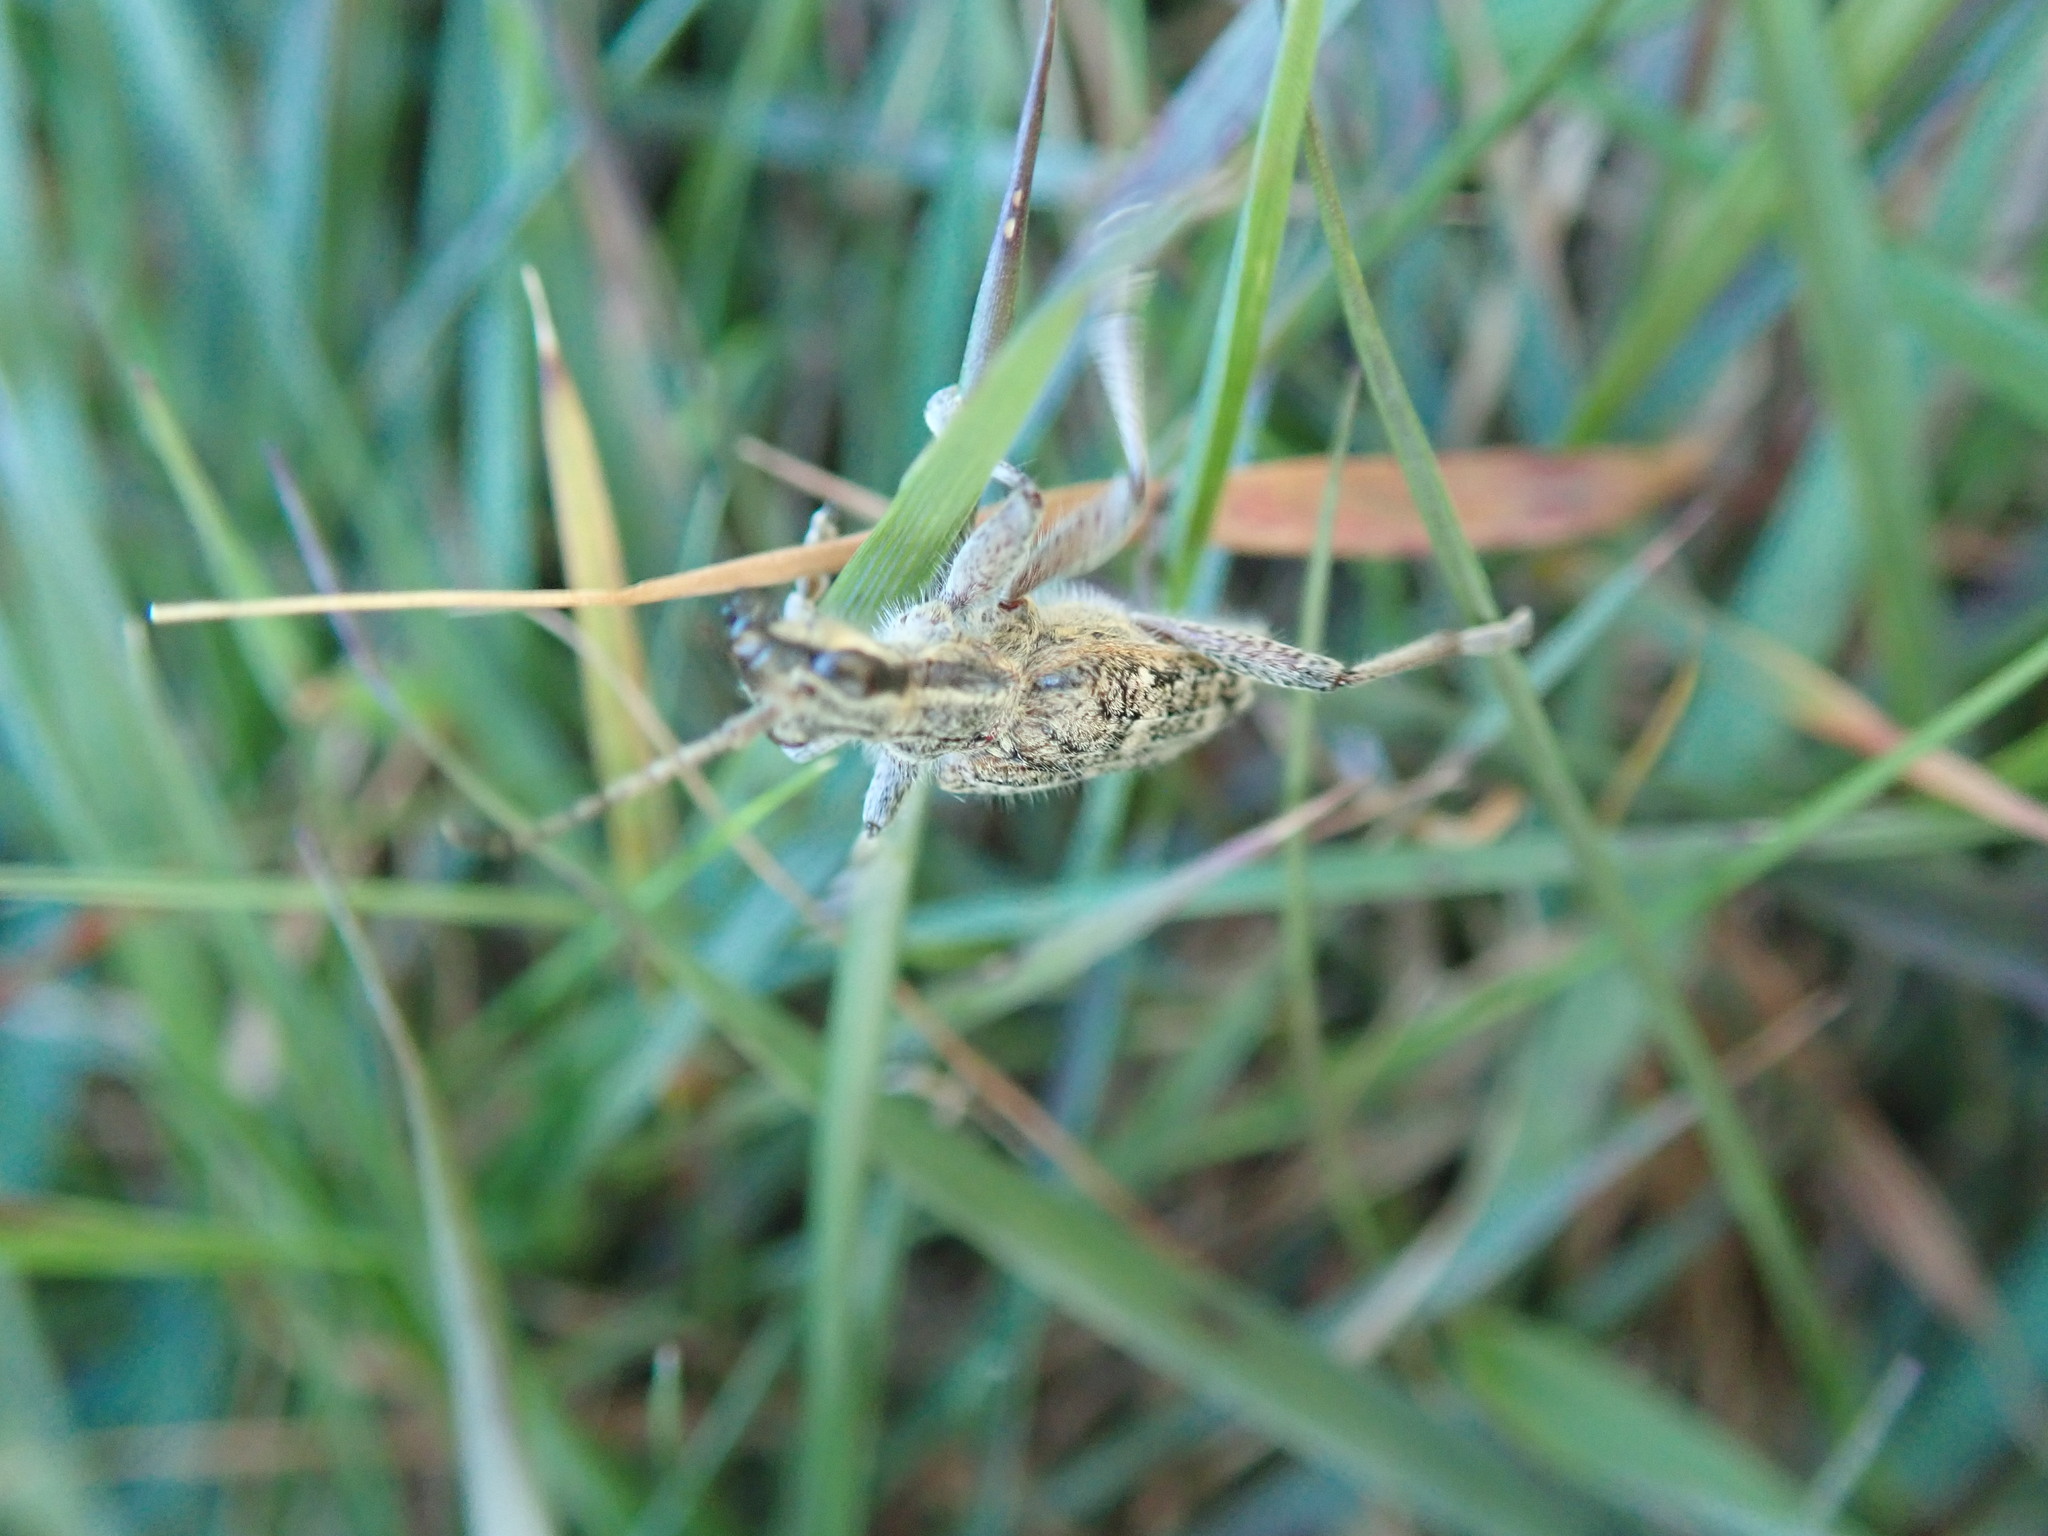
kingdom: Animalia
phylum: Arthropoda
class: Insecta
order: Coleoptera
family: Cerambycidae
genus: Rhagium
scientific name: Rhagium inquisitor
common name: Ribbed pine borer
